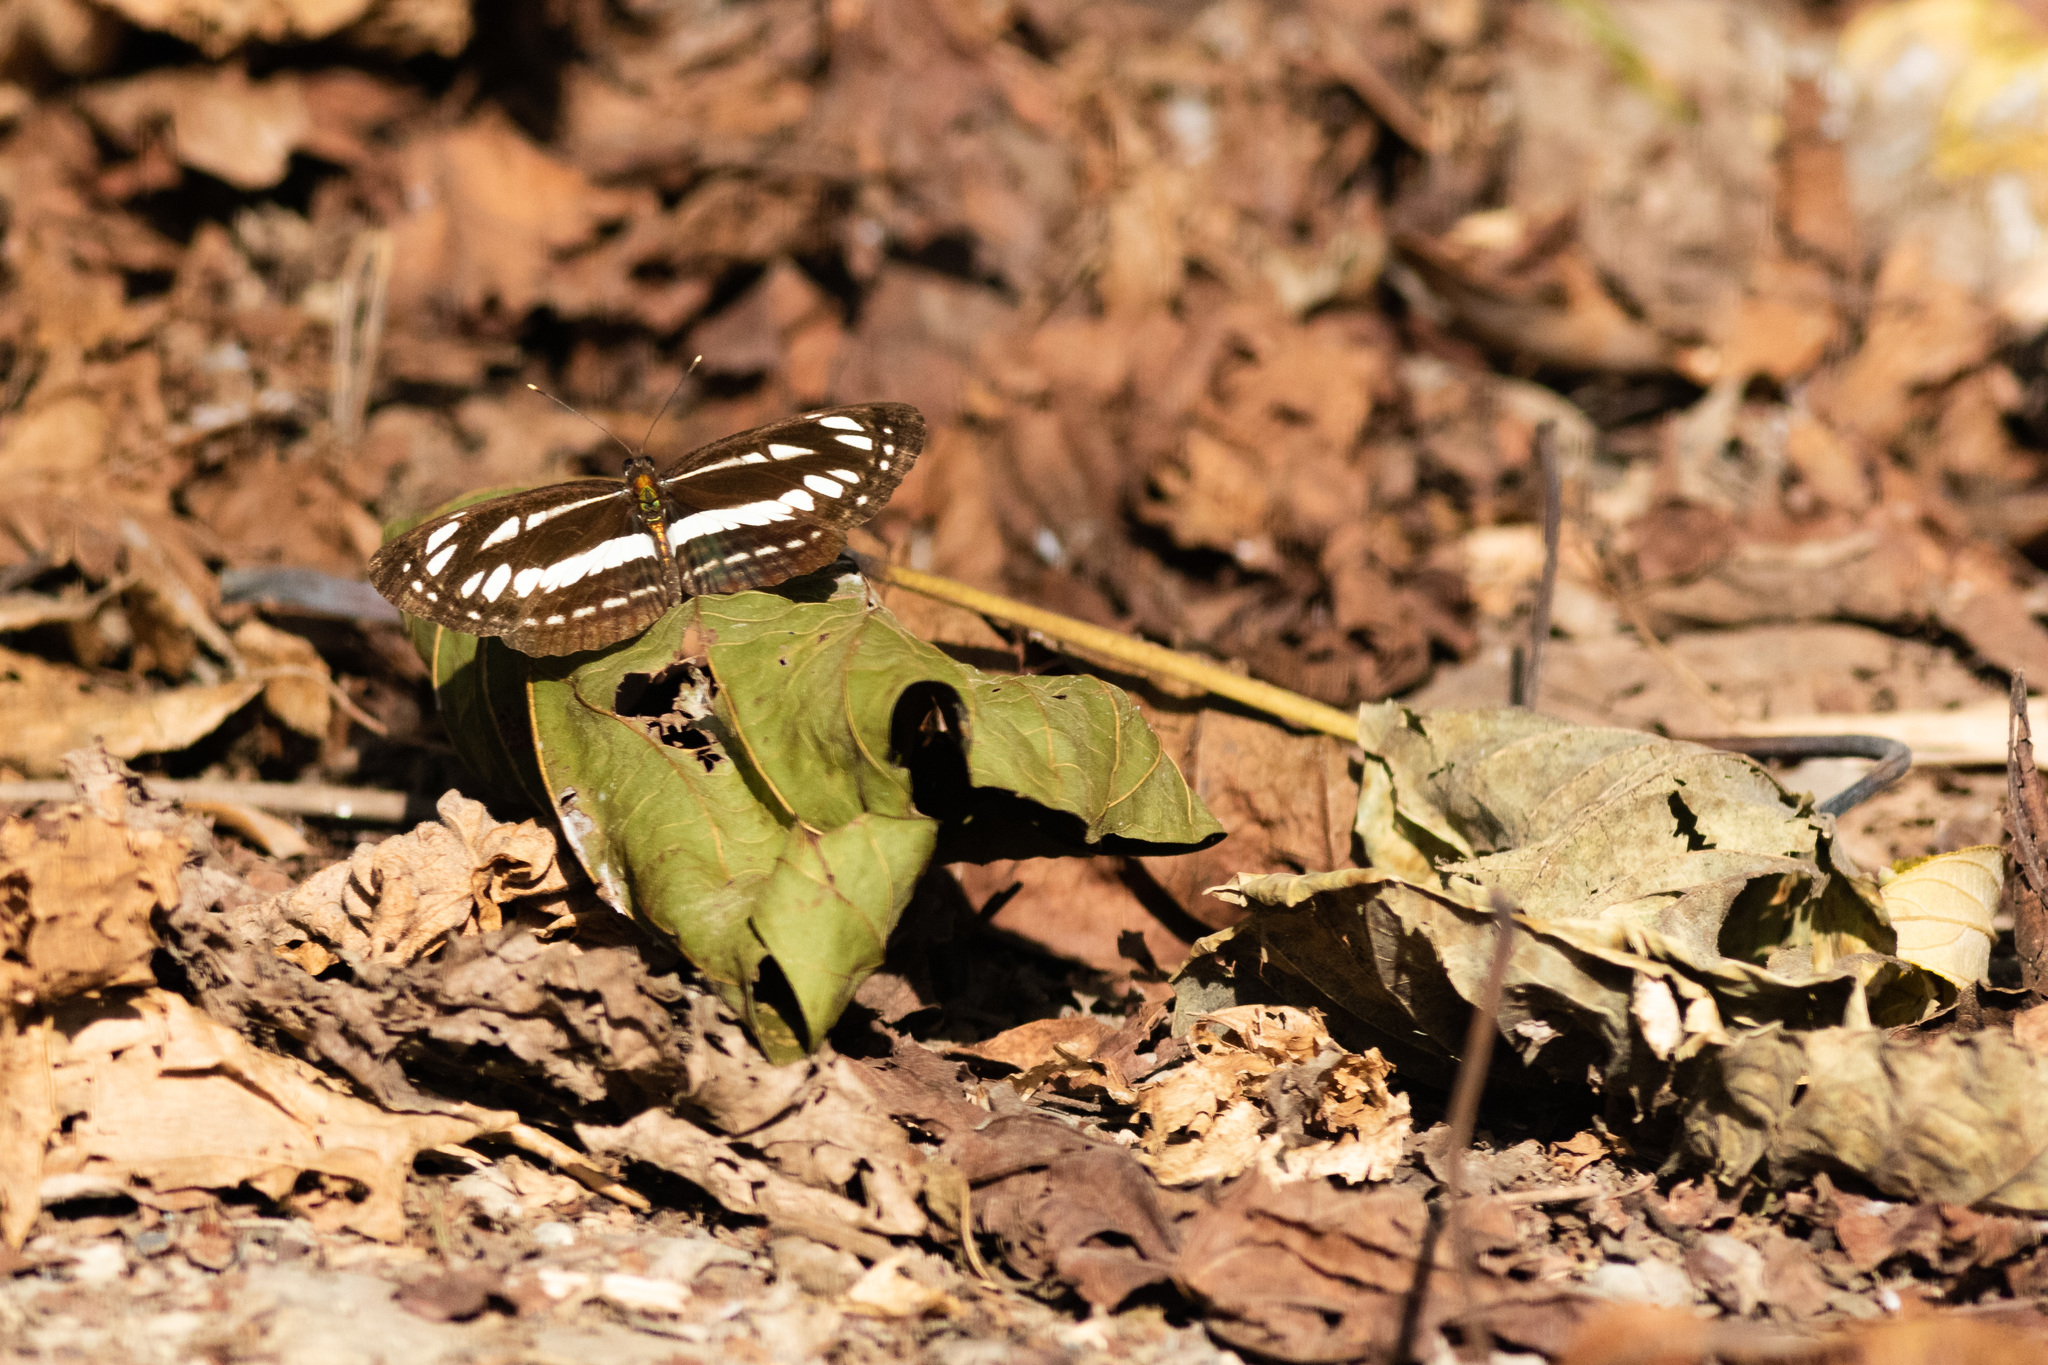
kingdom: Animalia
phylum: Arthropoda
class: Insecta
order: Lepidoptera
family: Nymphalidae
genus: Neptis
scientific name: Neptis hylas
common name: Common sailer
